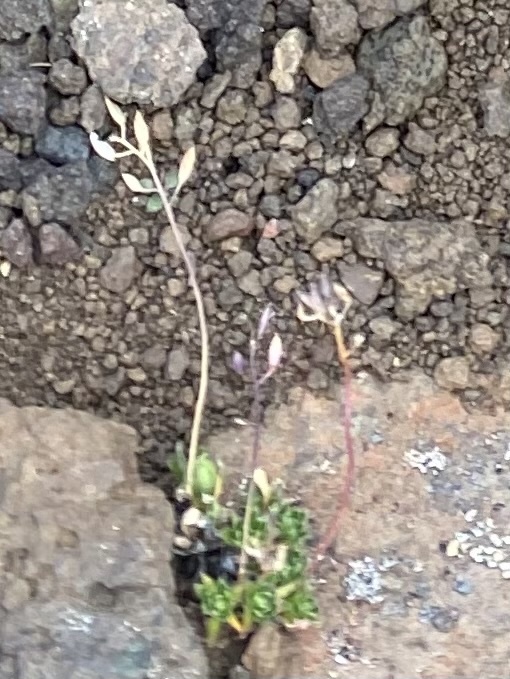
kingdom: Plantae
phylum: Tracheophyta
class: Magnoliopsida
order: Brassicales
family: Brassicaceae
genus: Draba
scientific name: Draba
